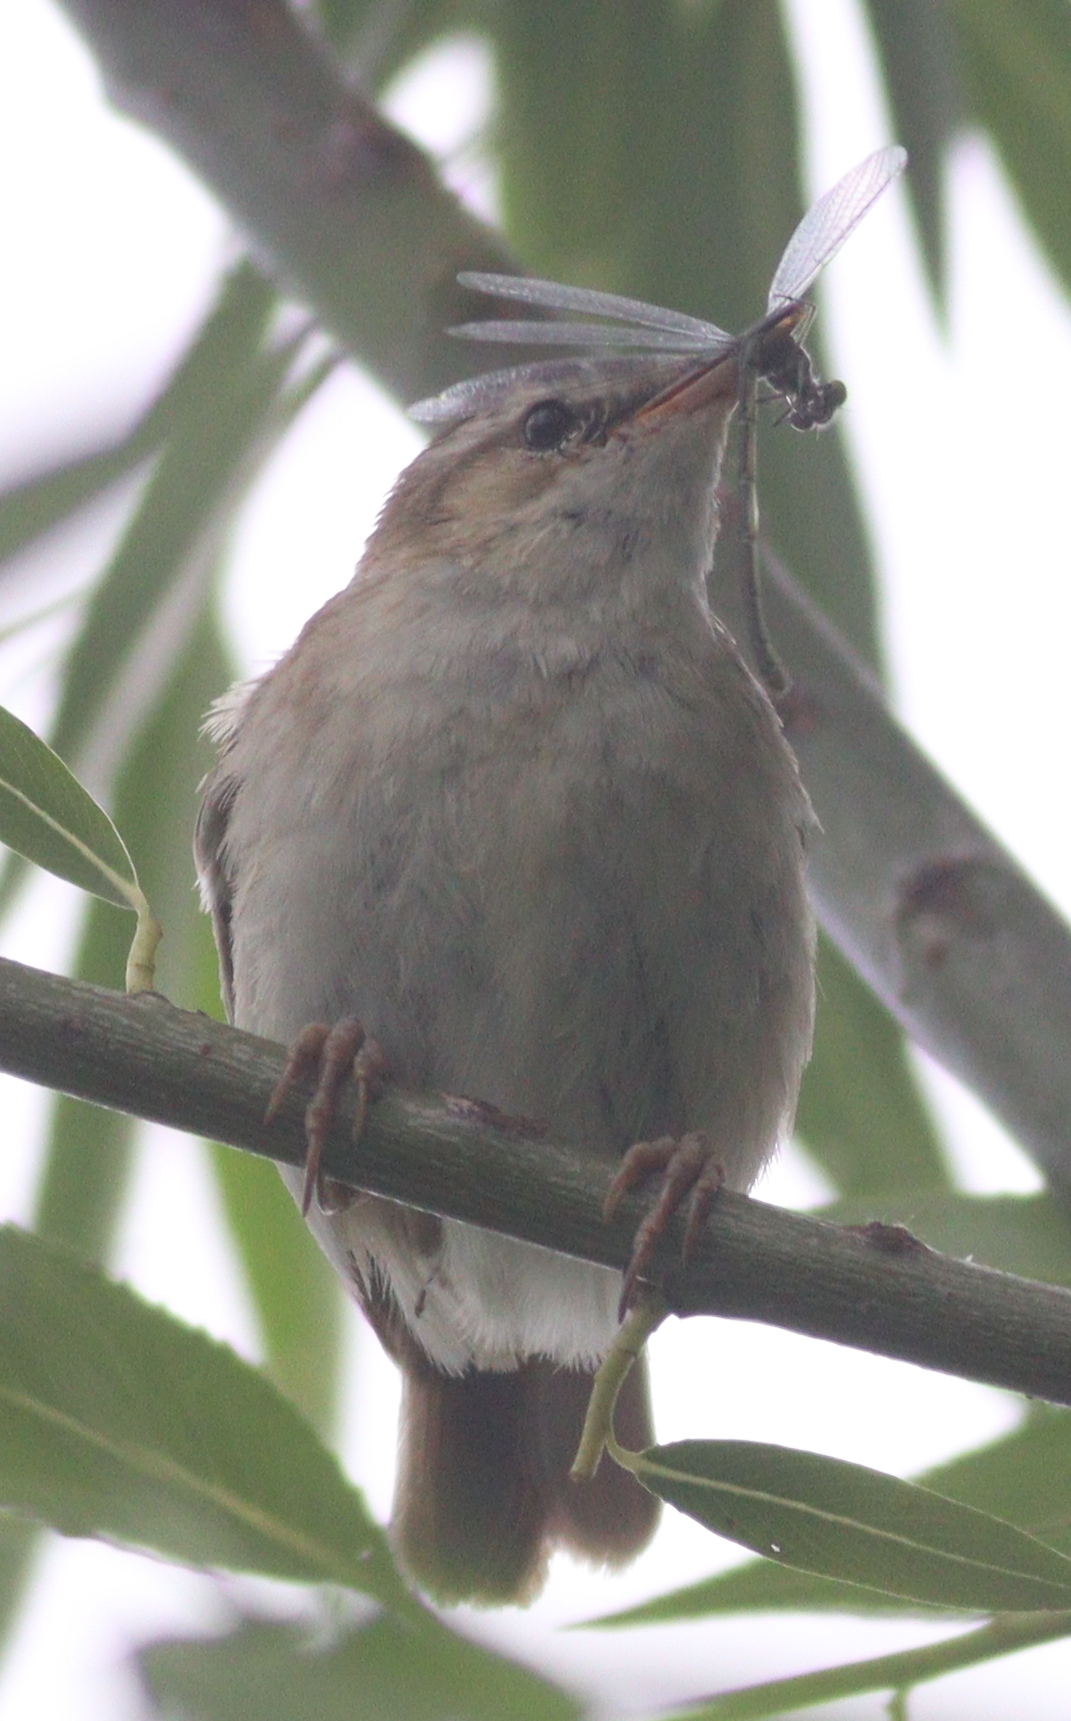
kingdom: Animalia
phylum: Chordata
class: Aves
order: Passeriformes
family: Acrocephalidae
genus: Acrocephalus
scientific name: Acrocephalus schoenobaenus
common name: Sedge warbler
